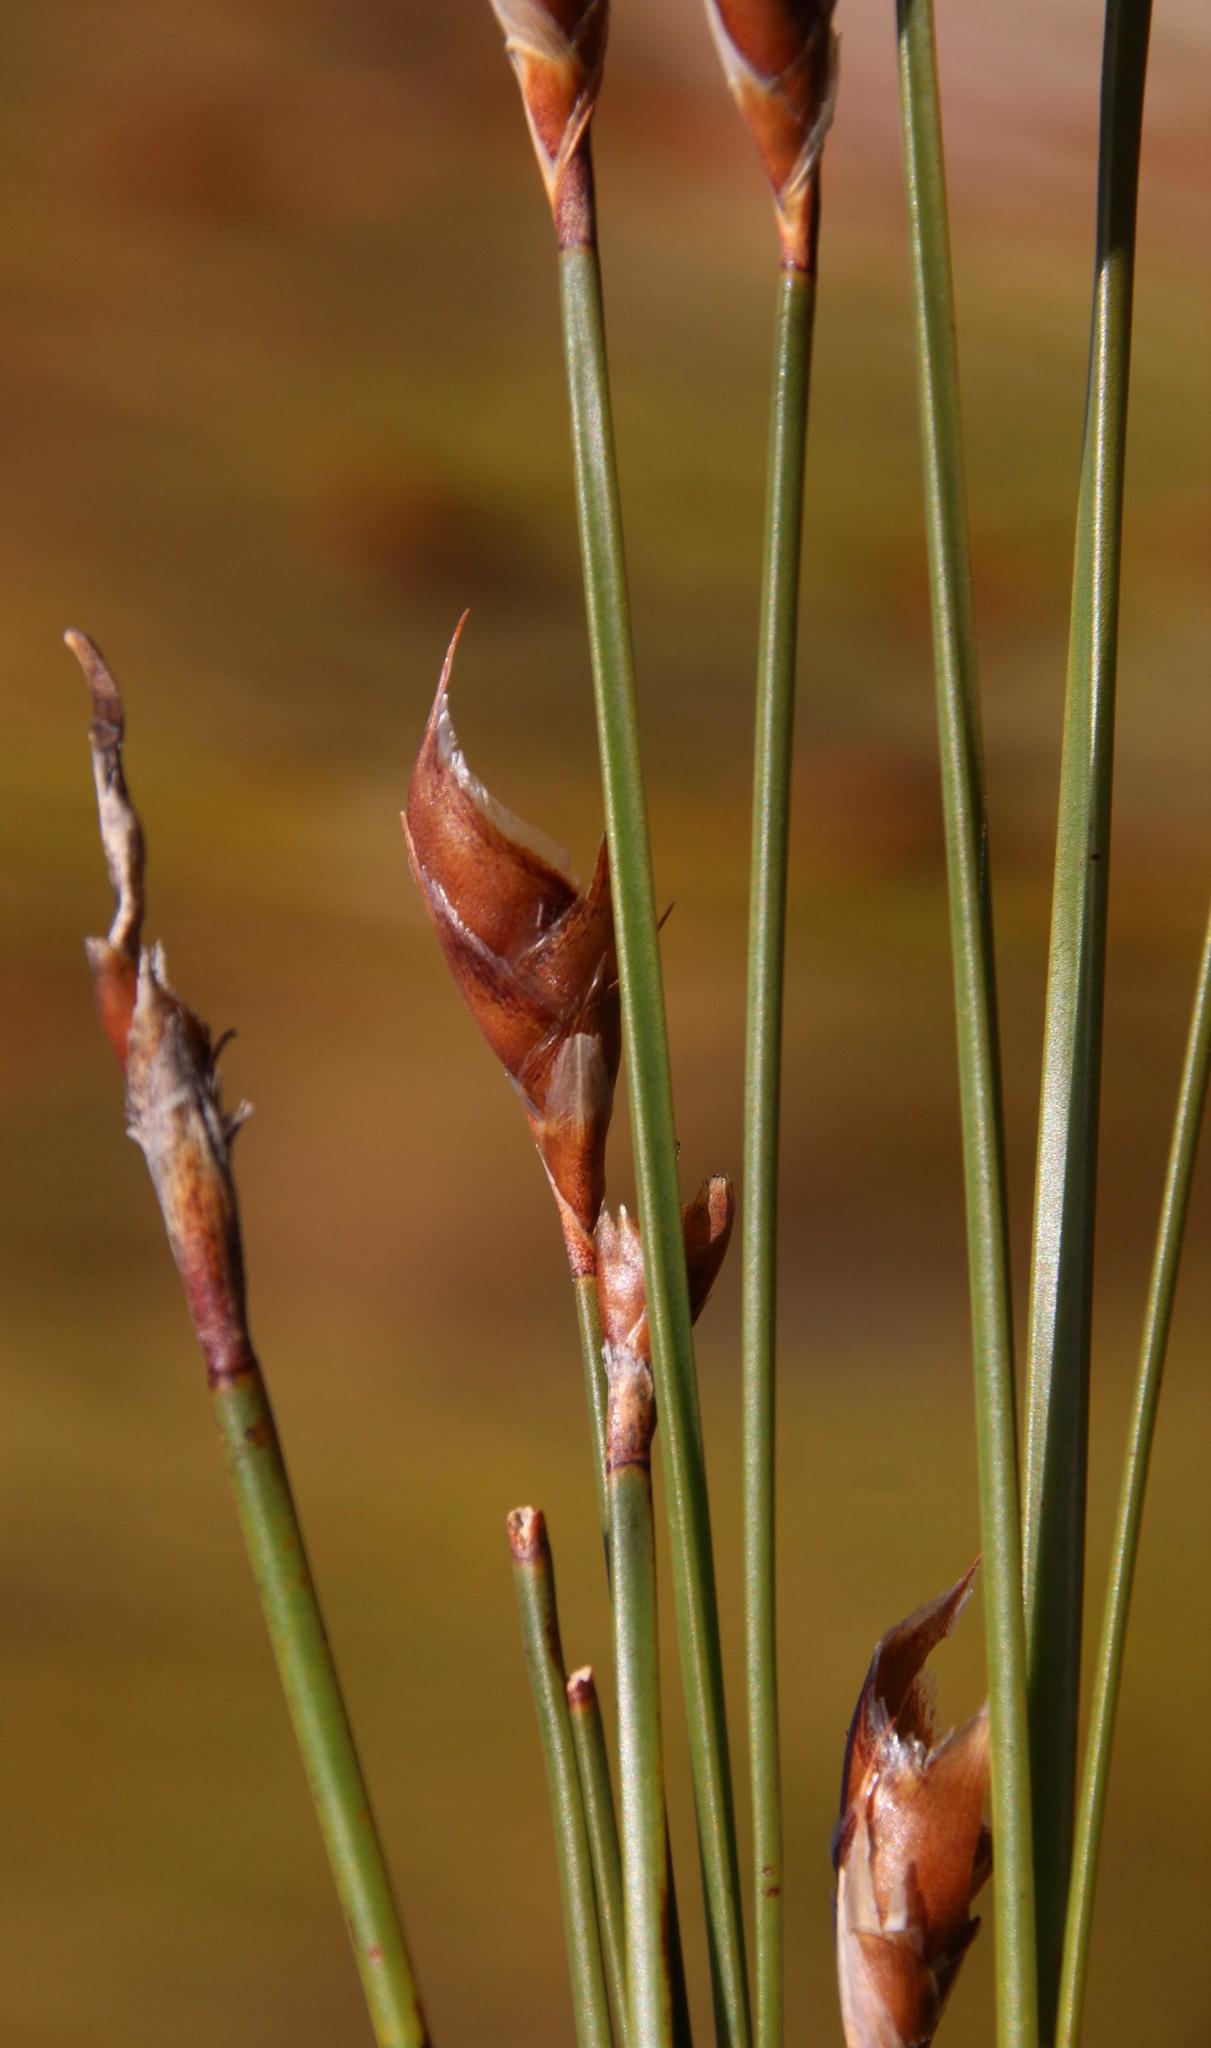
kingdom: Plantae
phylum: Tracheophyta
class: Liliopsida
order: Poales
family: Restionaceae
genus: Cannomois
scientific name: Cannomois robusta
